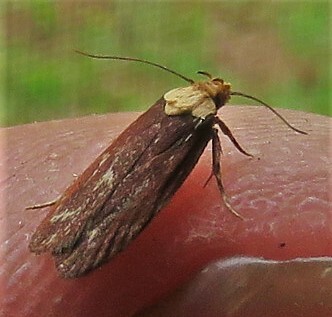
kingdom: Animalia
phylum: Arthropoda
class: Insecta
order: Lepidoptera
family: Depressariidae
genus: Depressaria
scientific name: Depressaria depressana
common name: Lost flat-body
